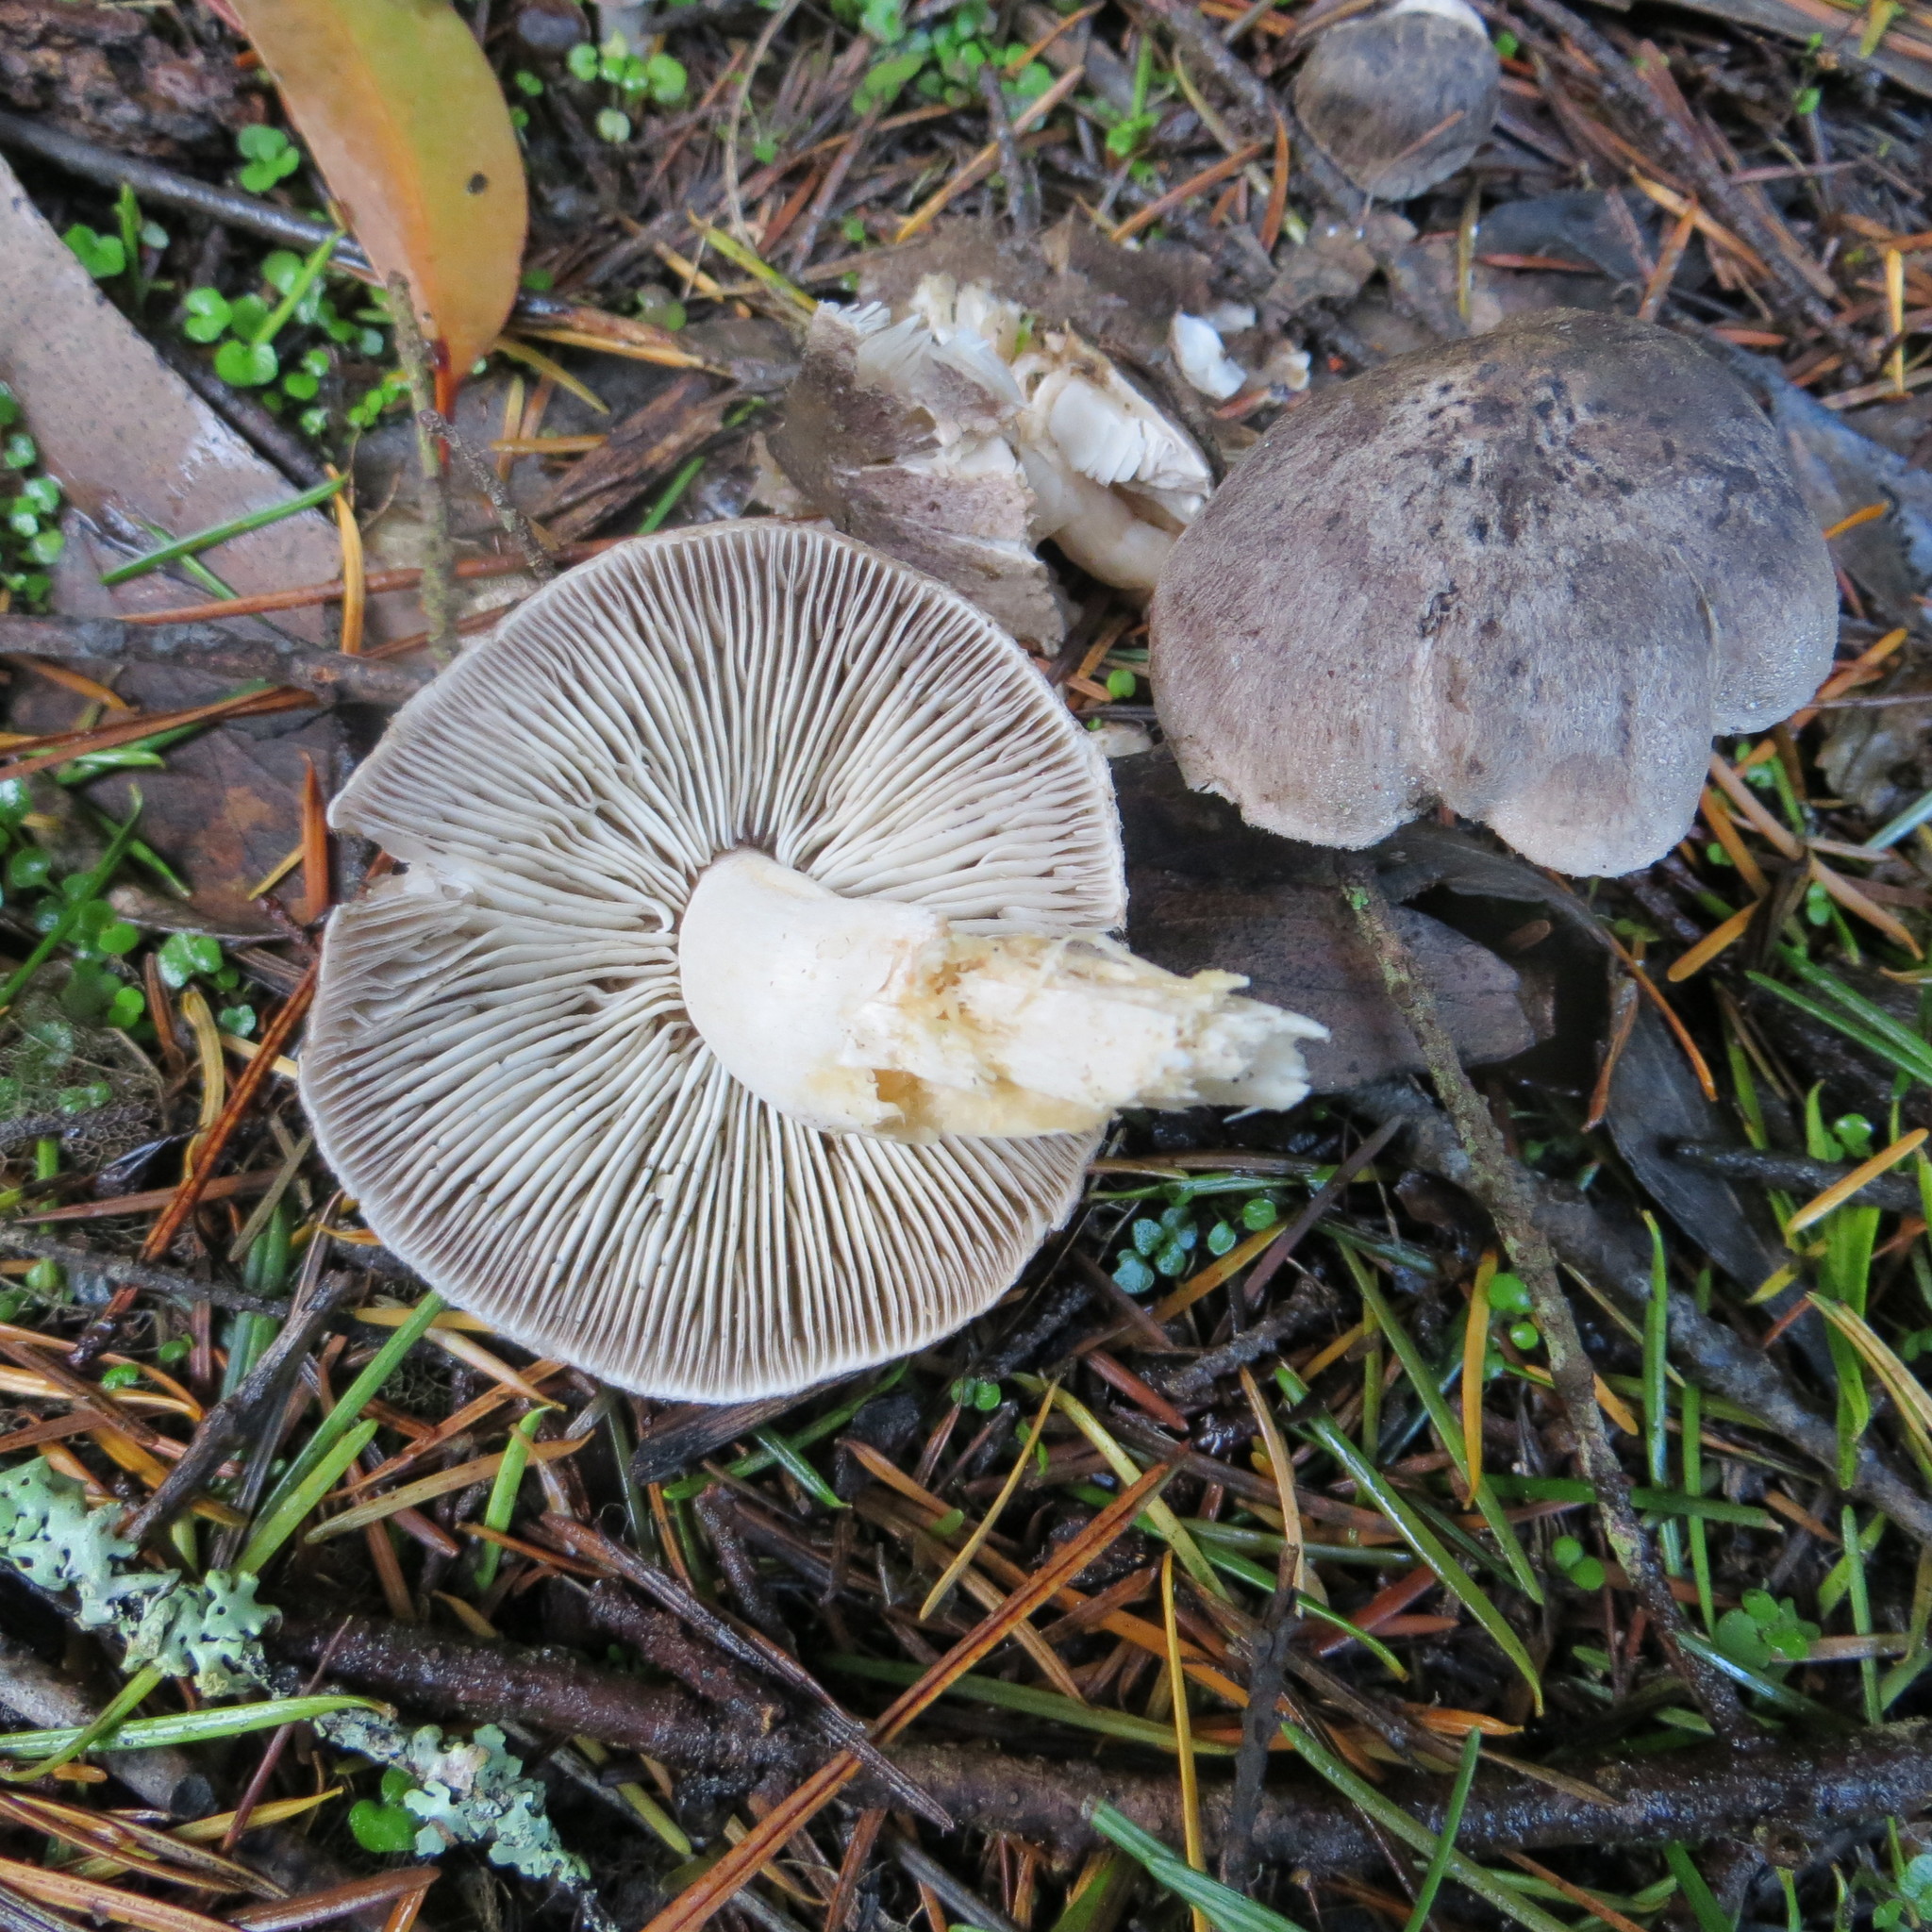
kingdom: Fungi
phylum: Basidiomycota
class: Agaricomycetes
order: Agaricales
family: Tricholomataceae
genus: Tricholoma
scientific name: Tricholoma terreum
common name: Grey knight
